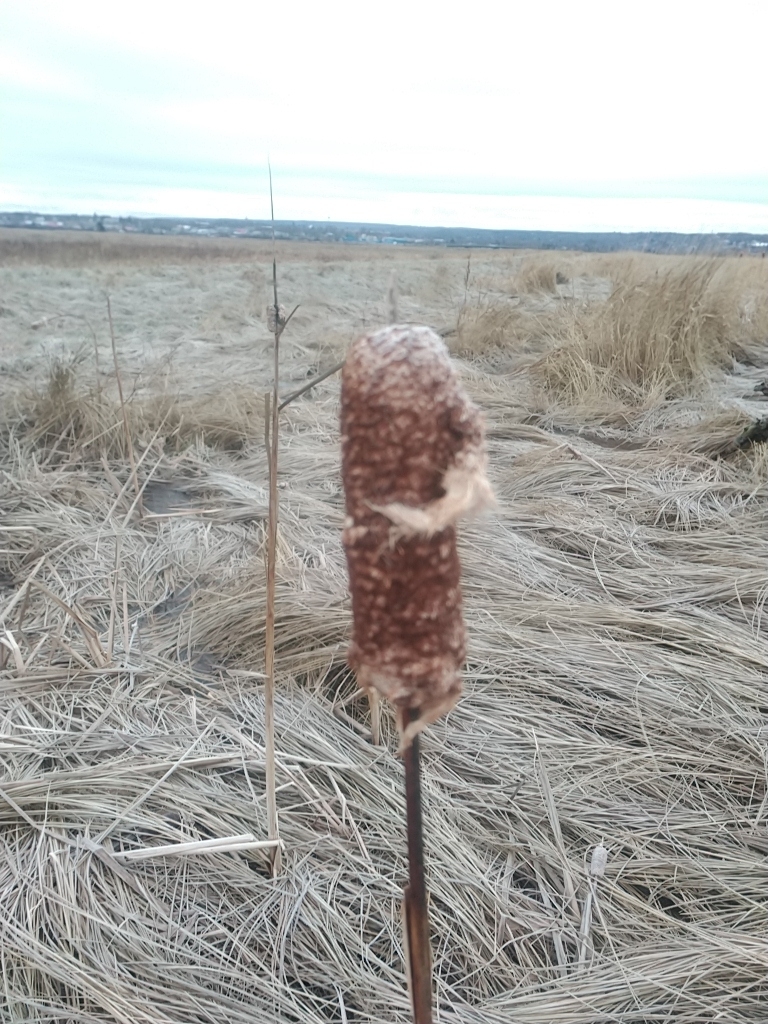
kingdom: Plantae
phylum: Tracheophyta
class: Liliopsida
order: Poales
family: Typhaceae
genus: Typha
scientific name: Typha
